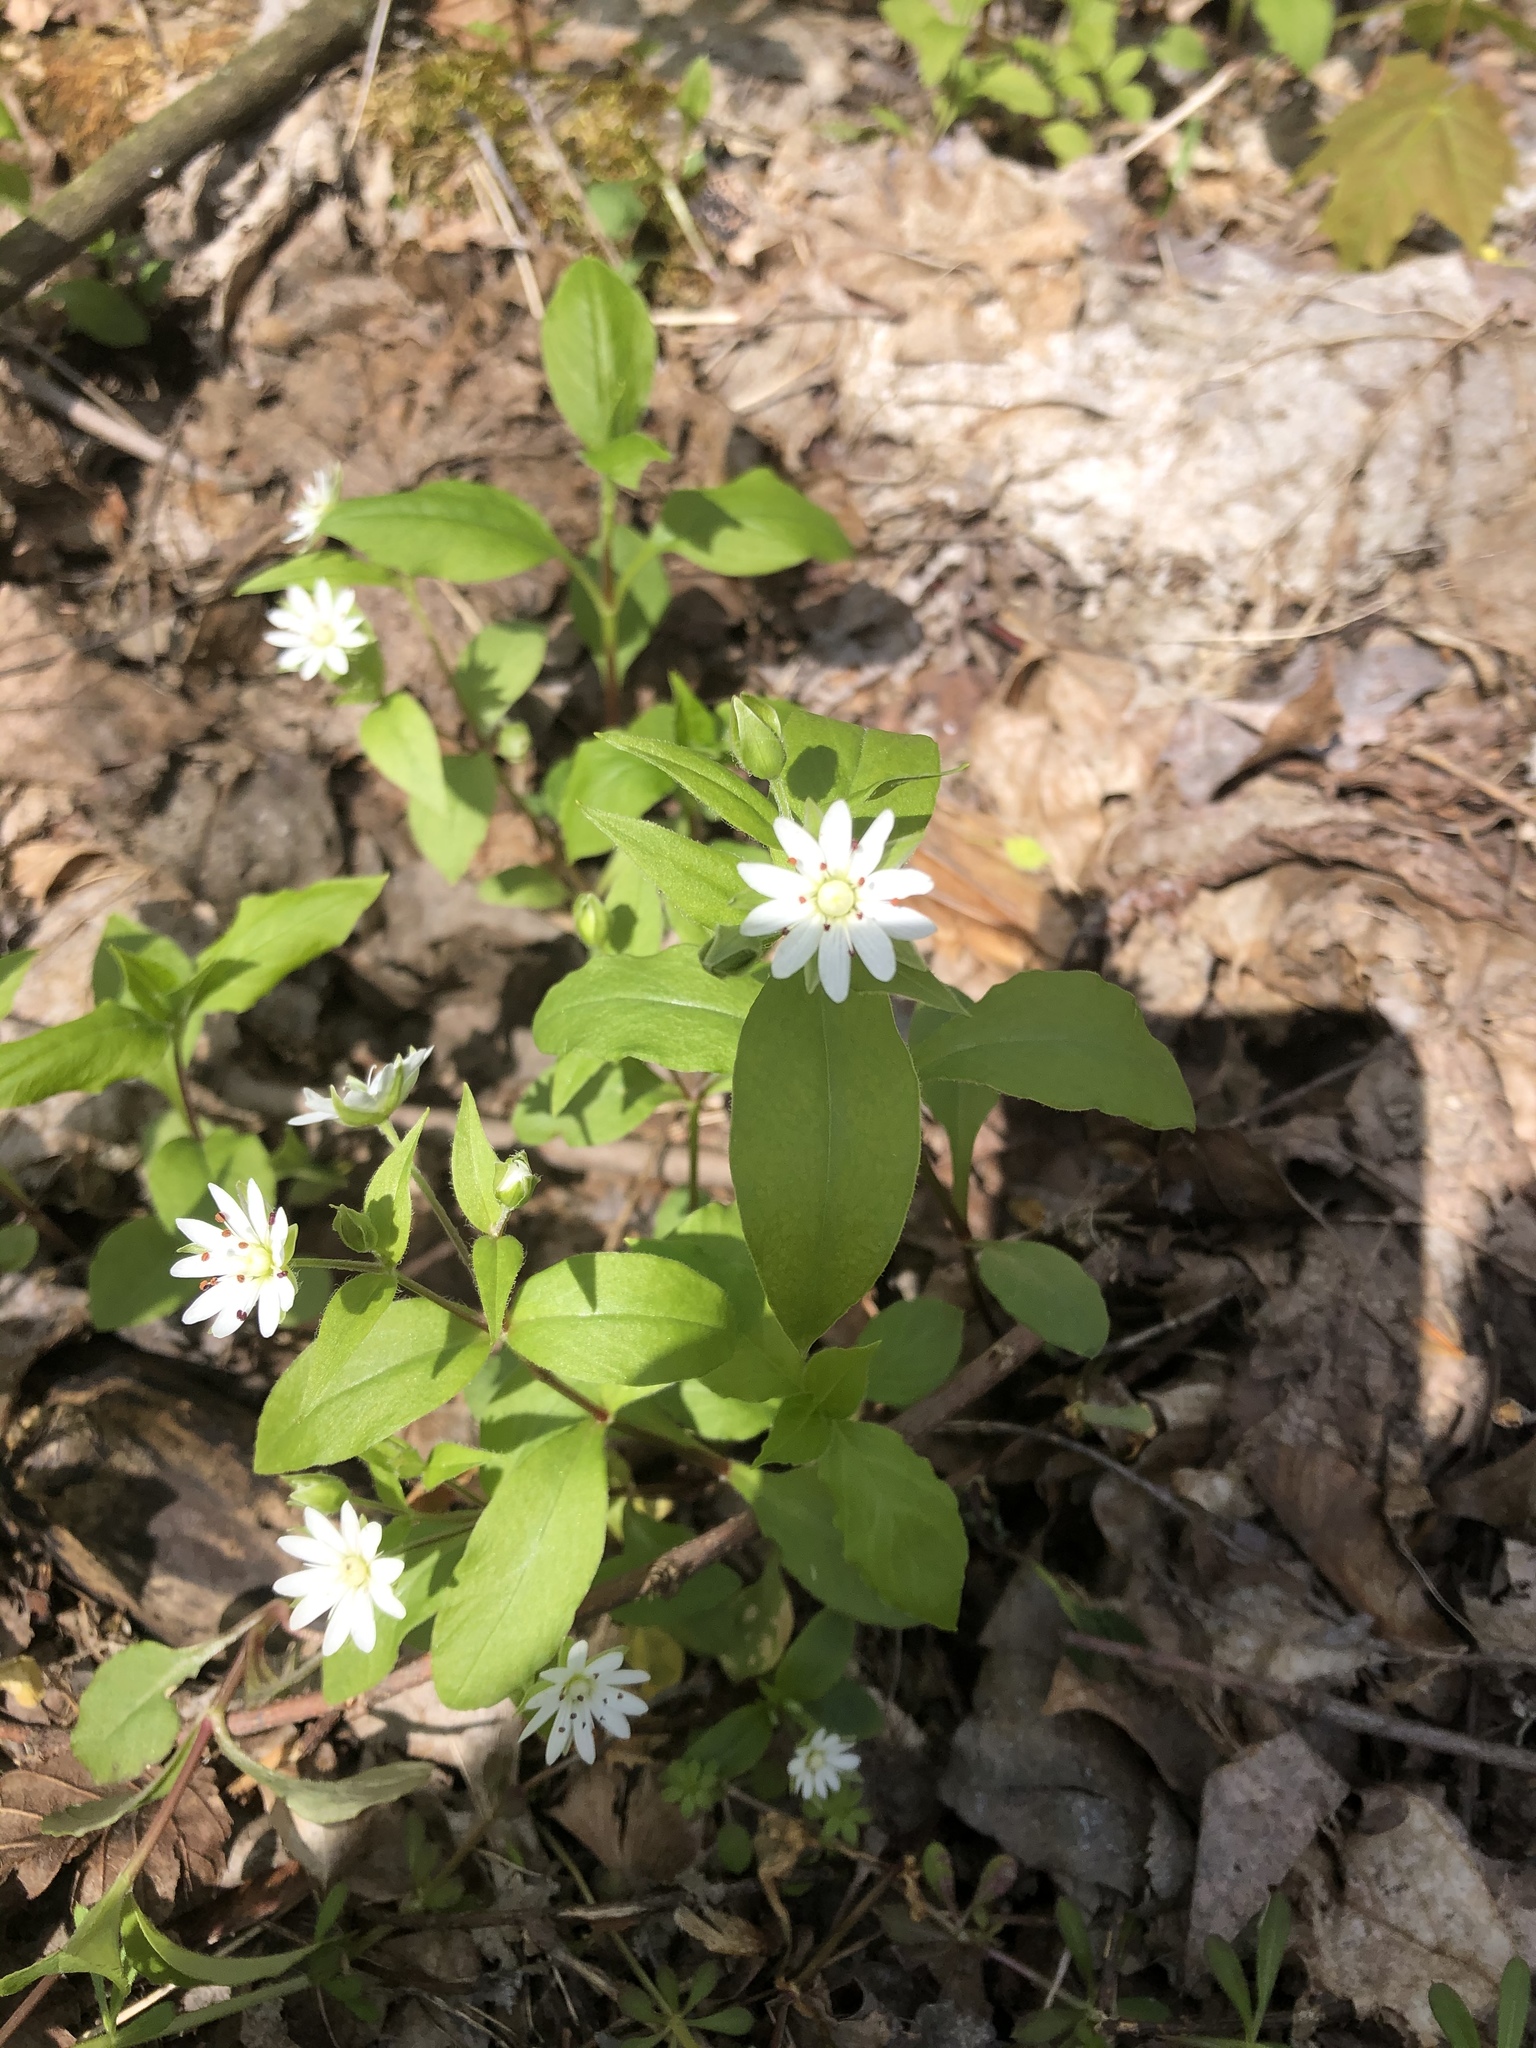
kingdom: Plantae
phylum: Tracheophyta
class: Magnoliopsida
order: Caryophyllales
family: Caryophyllaceae
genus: Stellaria
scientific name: Stellaria pubera
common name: Star chickweed
